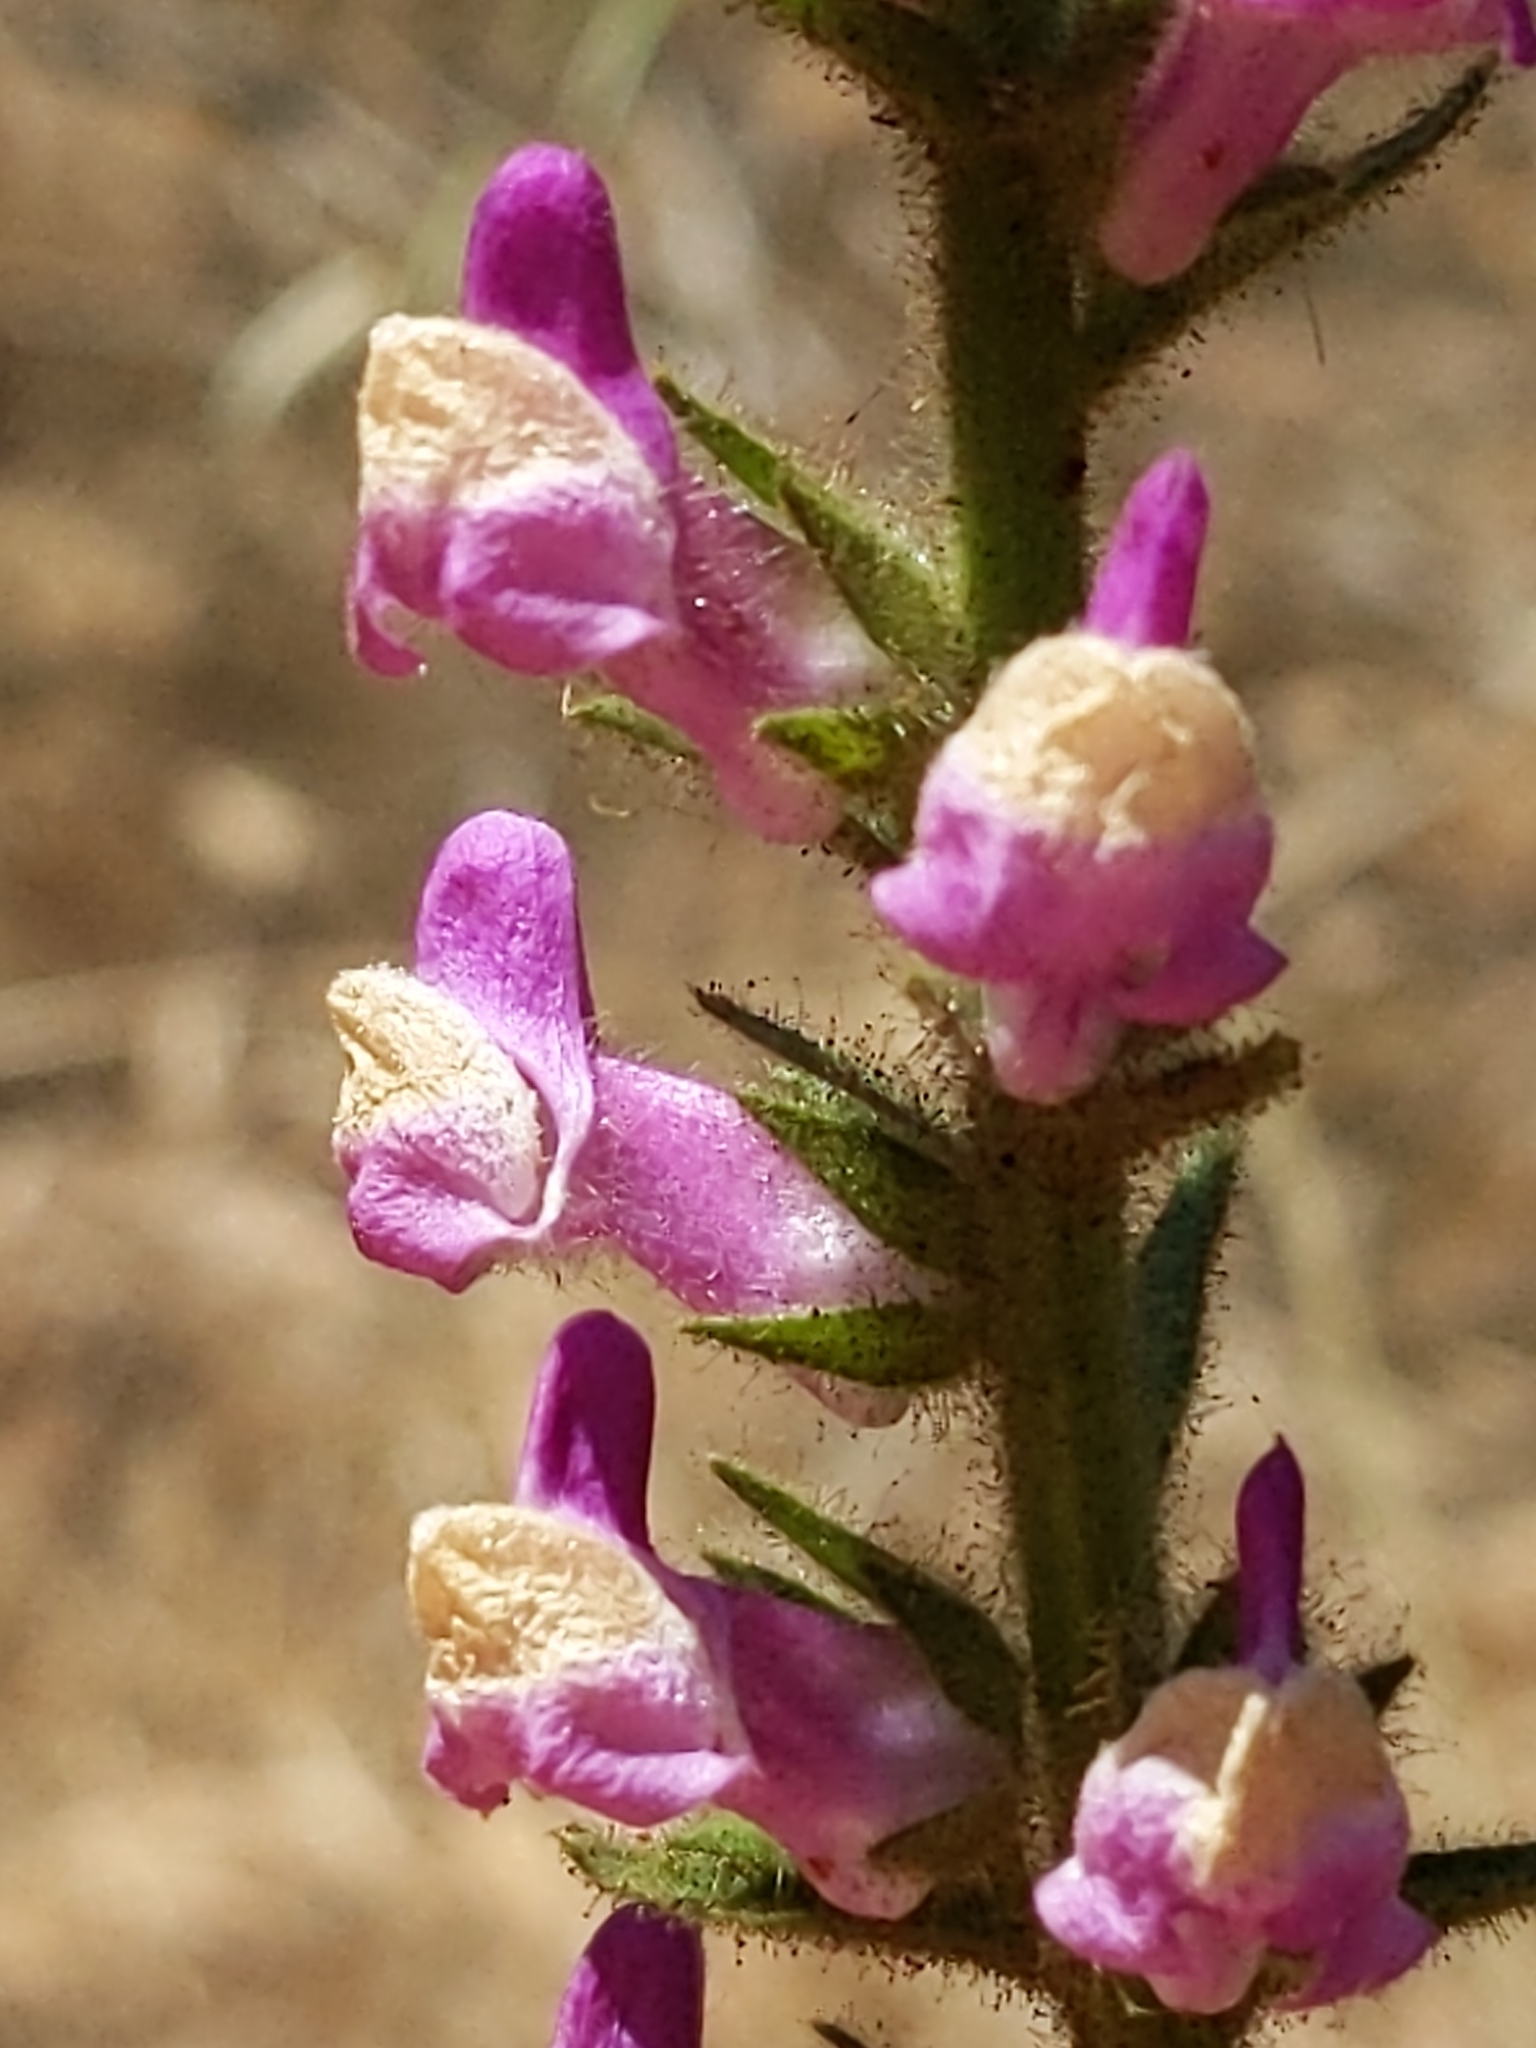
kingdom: Plantae
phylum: Tracheophyta
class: Magnoliopsida
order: Lamiales
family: Plantaginaceae
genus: Sairocarpus
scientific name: Sairocarpus multiflorus
